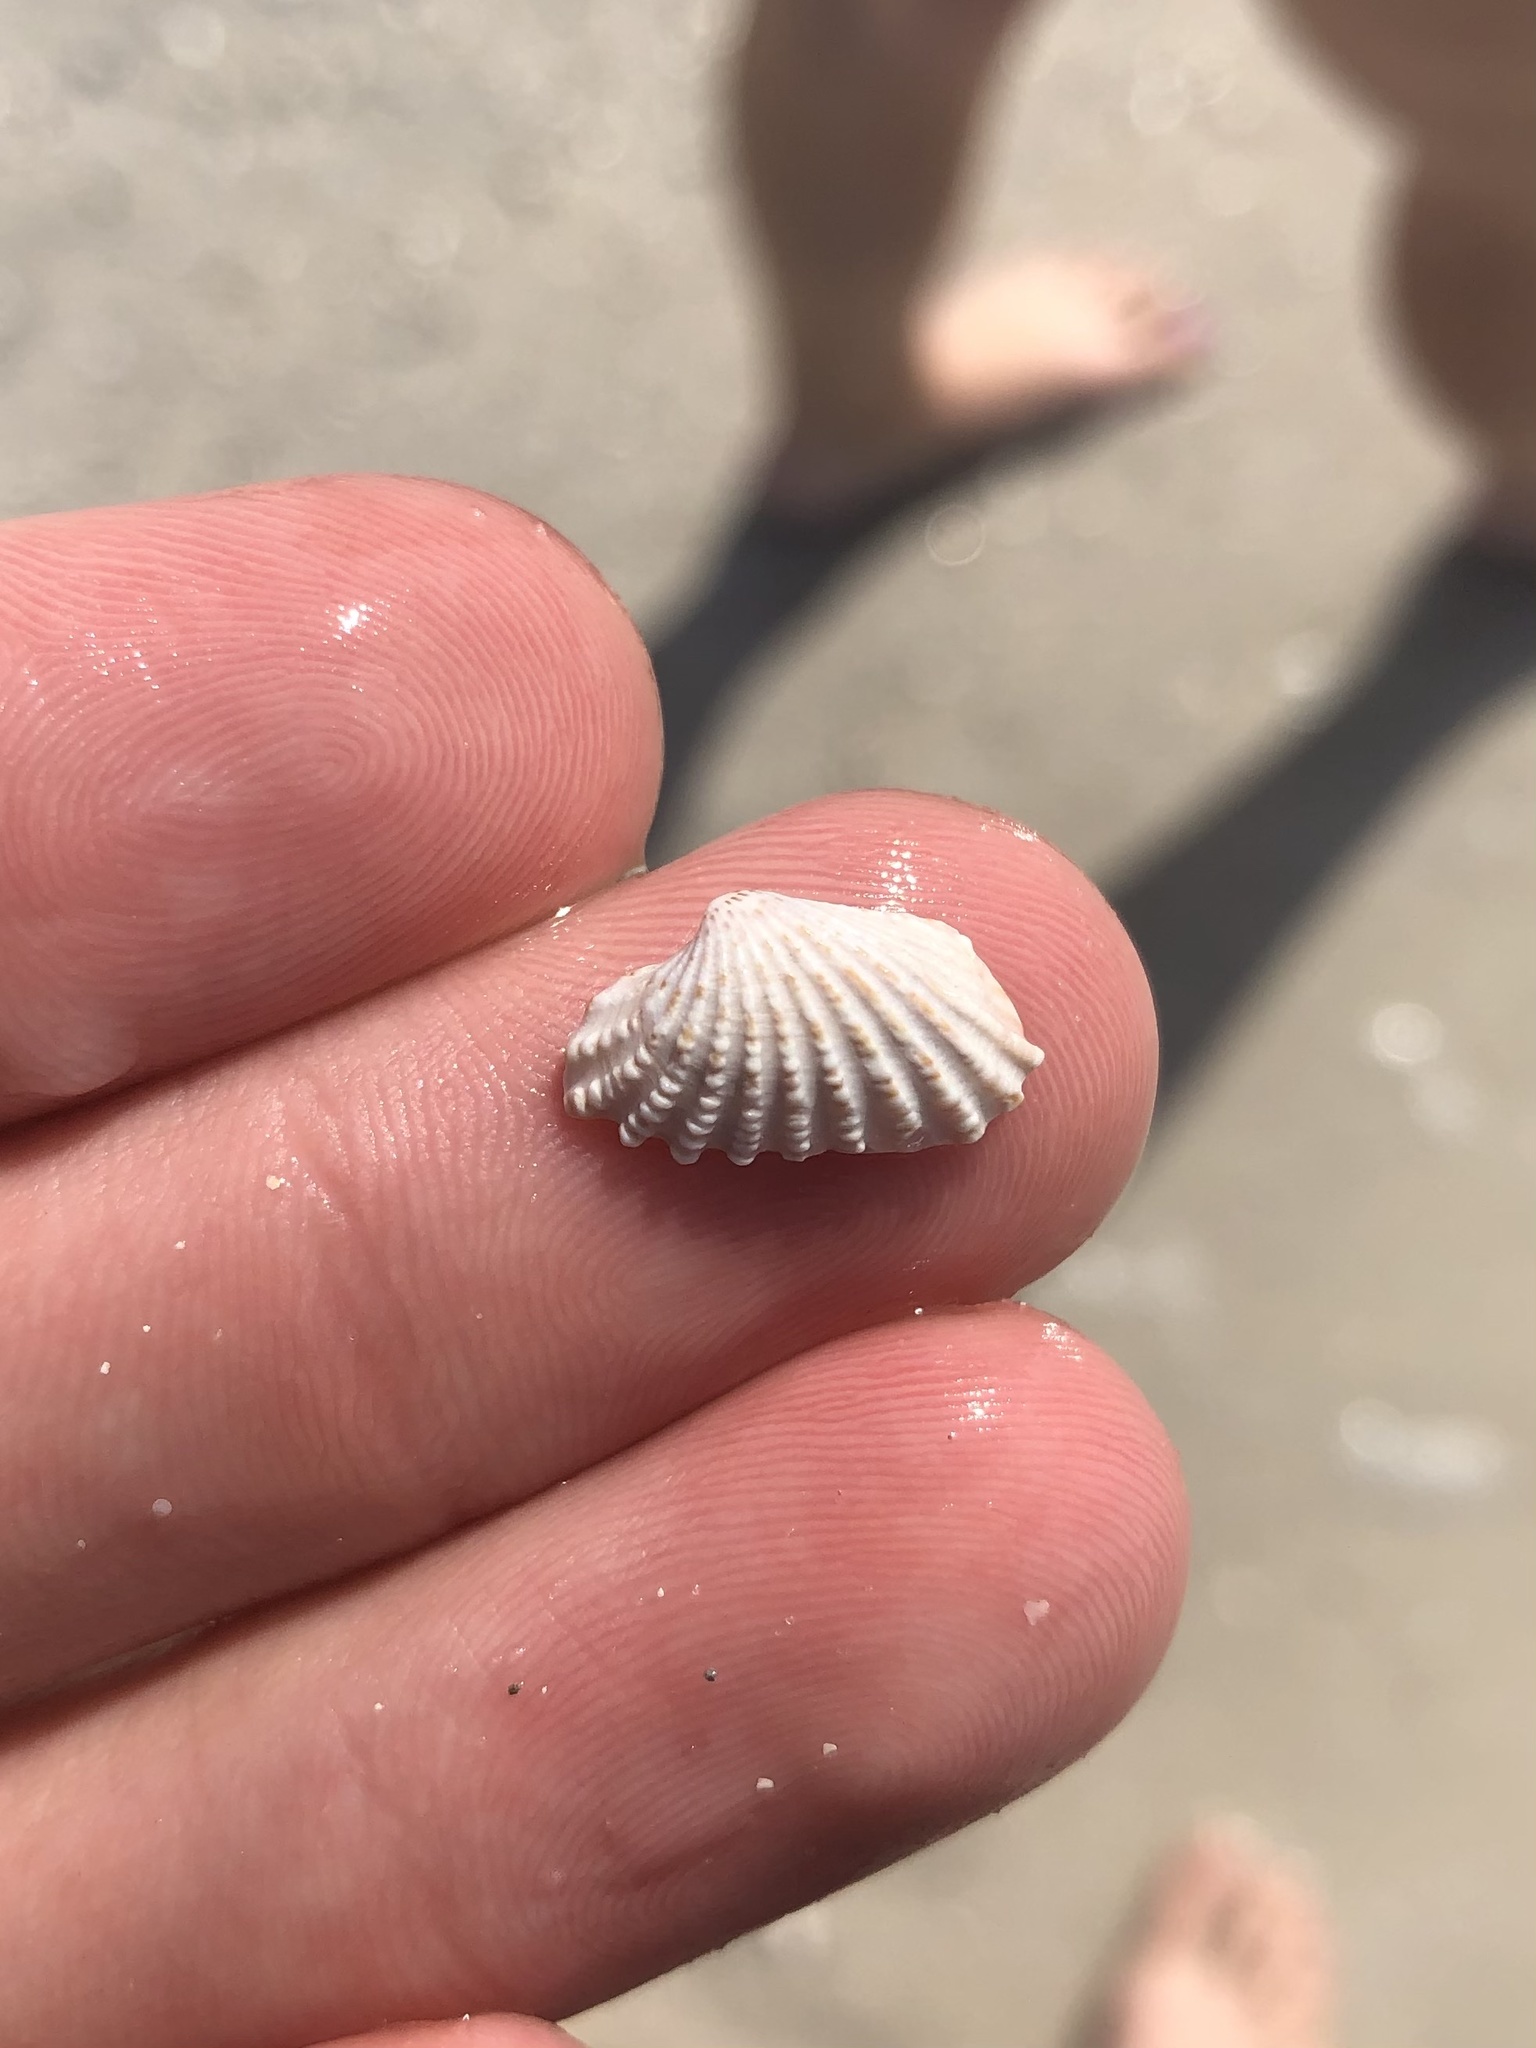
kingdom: Animalia
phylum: Mollusca
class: Bivalvia
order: Carditida
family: Carditidae
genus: Cardites
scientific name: Cardites floridanus
